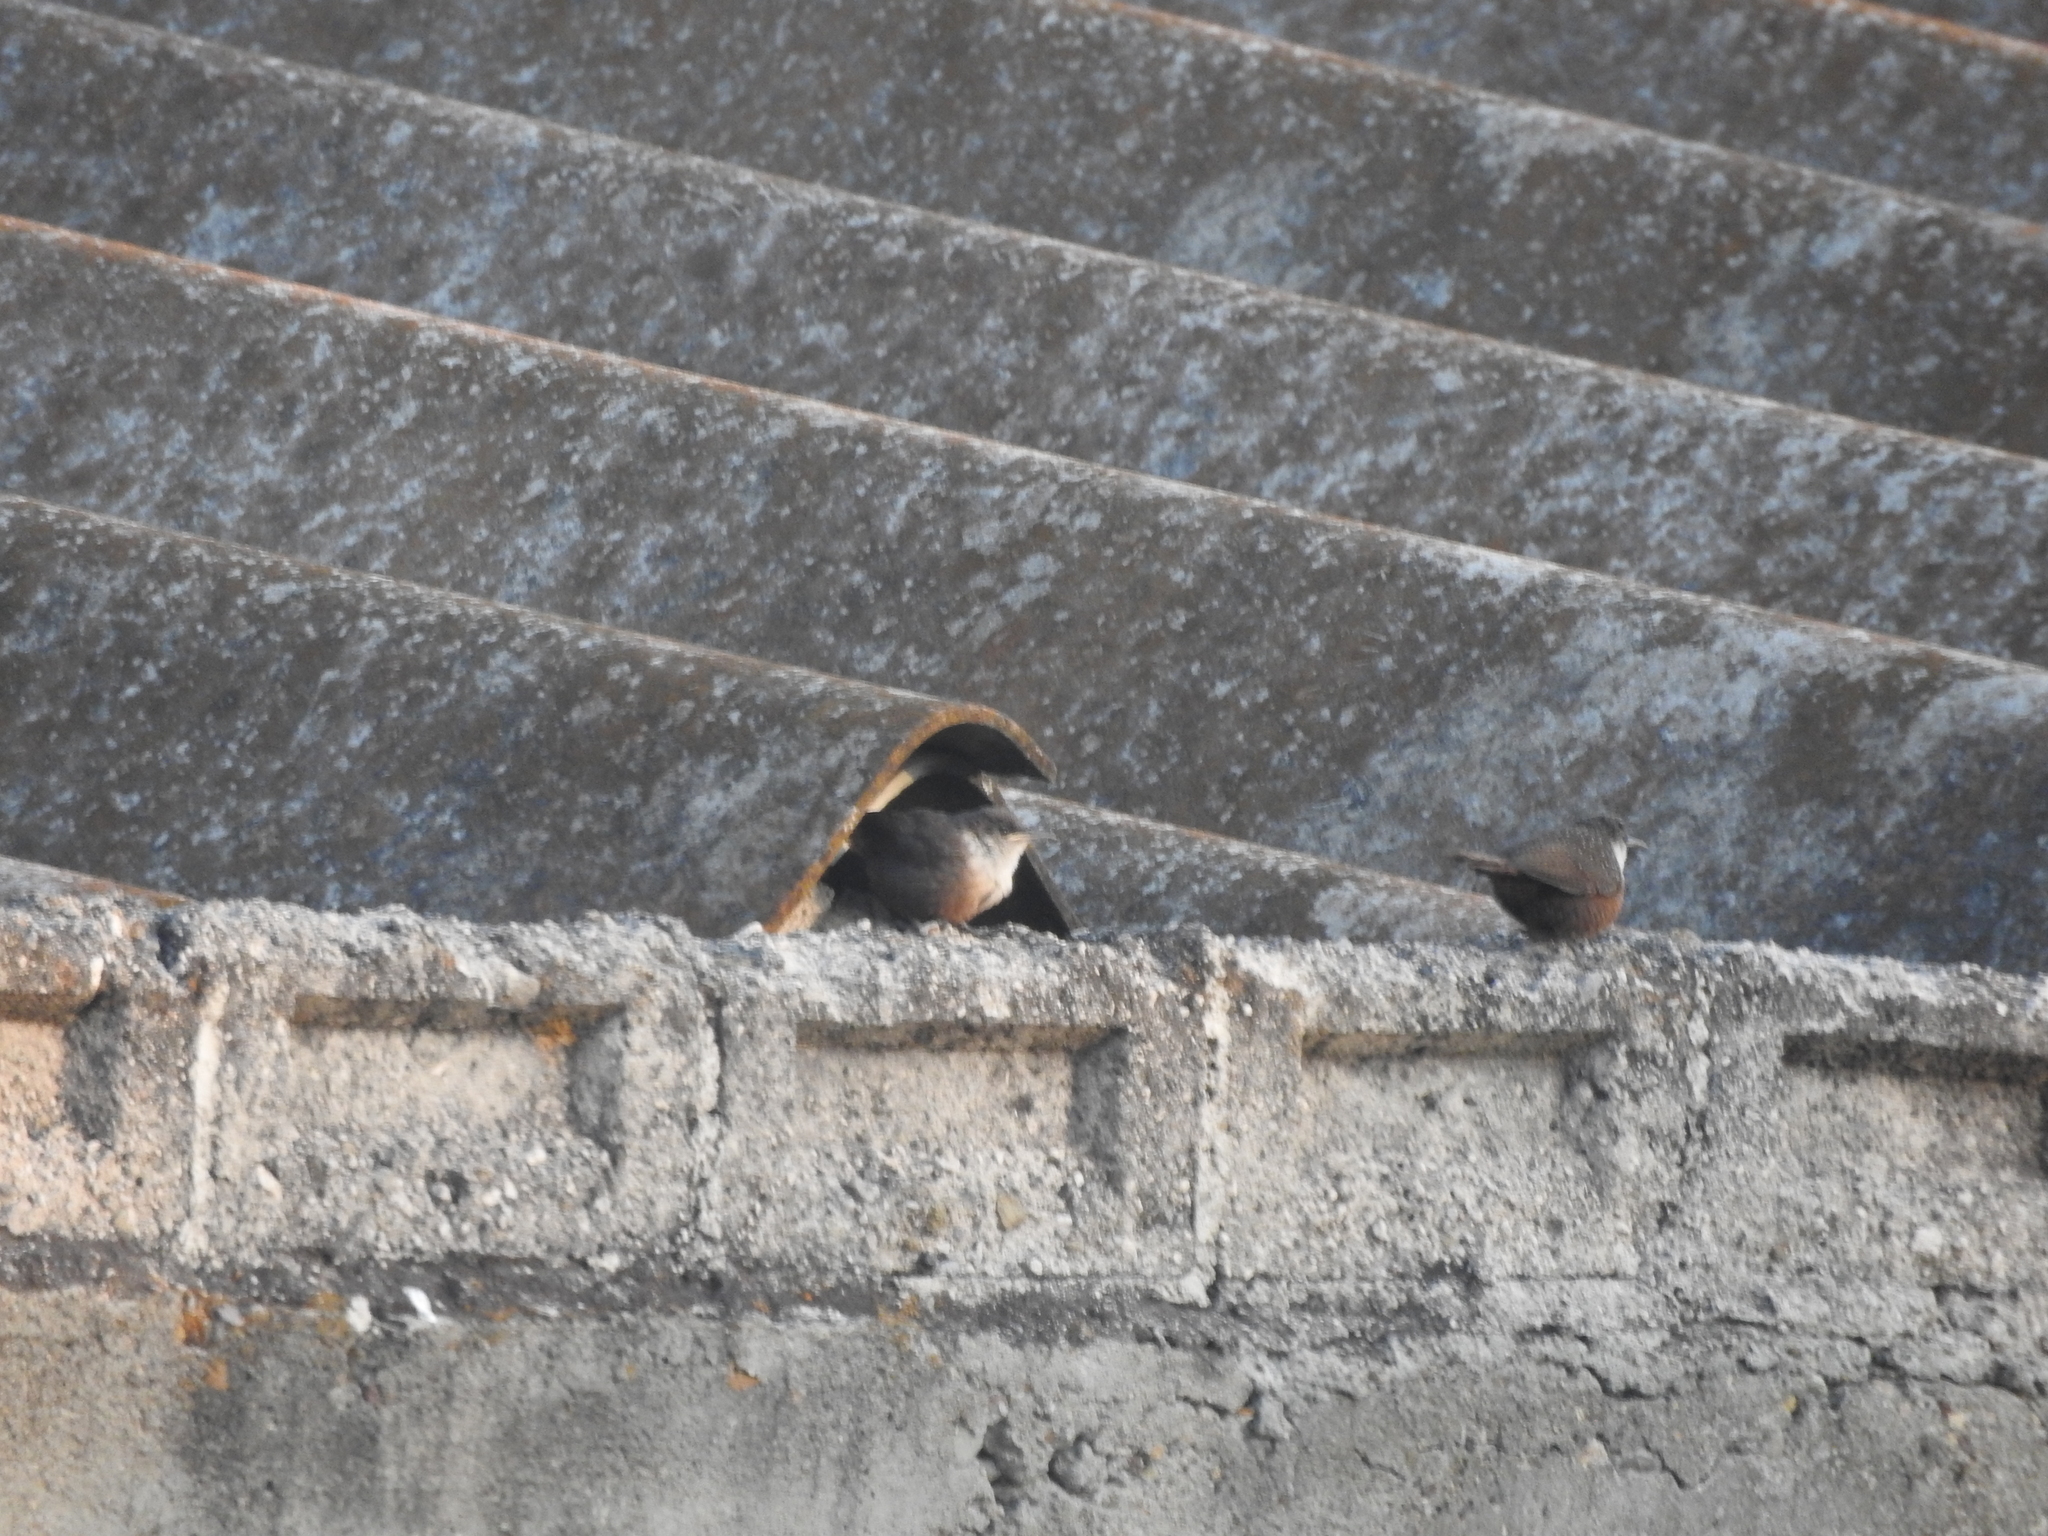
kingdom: Animalia
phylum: Chordata
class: Aves
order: Passeriformes
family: Troglodytidae
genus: Catherpes
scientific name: Catherpes mexicanus
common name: Canyon wren
